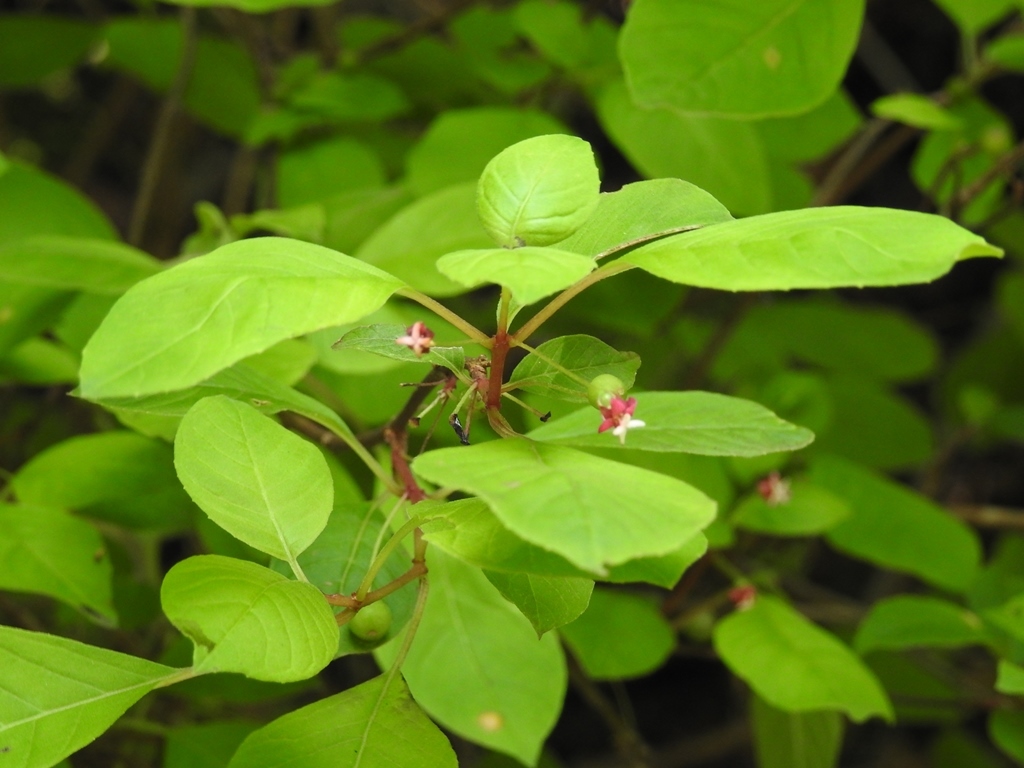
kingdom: Plantae
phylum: Tracheophyta
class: Magnoliopsida
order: Myrtales
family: Onagraceae
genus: Fuchsia
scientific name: Fuchsia encliandra
